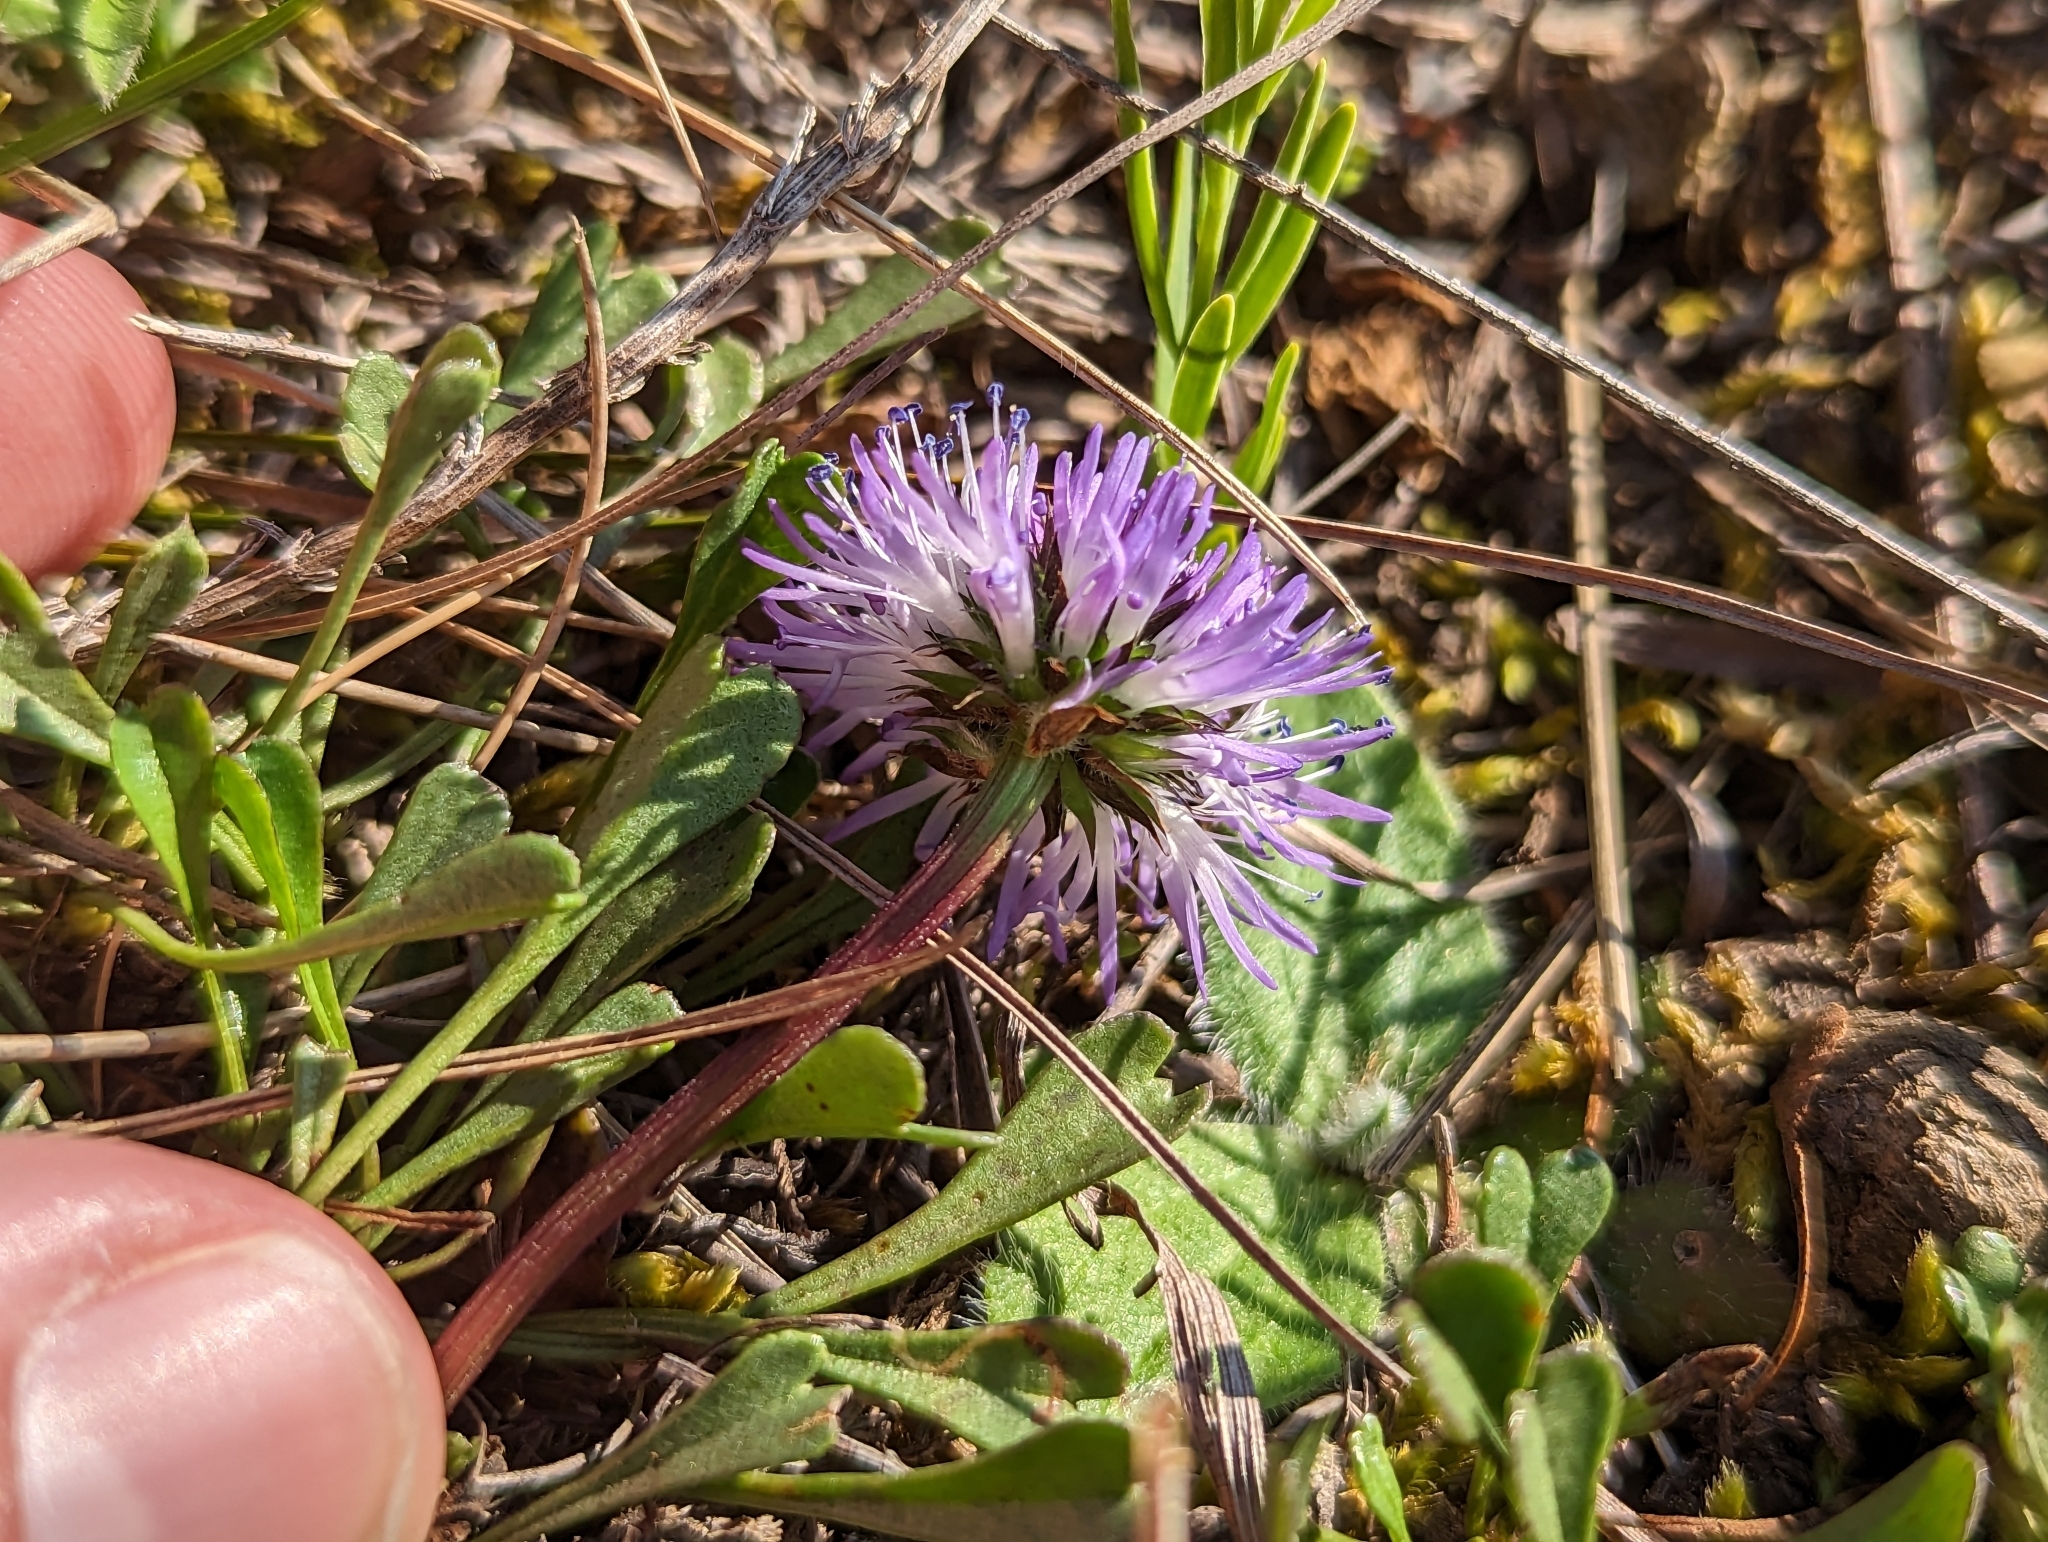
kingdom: Plantae
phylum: Tracheophyta
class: Magnoliopsida
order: Lamiales
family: Plantaginaceae
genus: Globularia
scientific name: Globularia cordifolia
